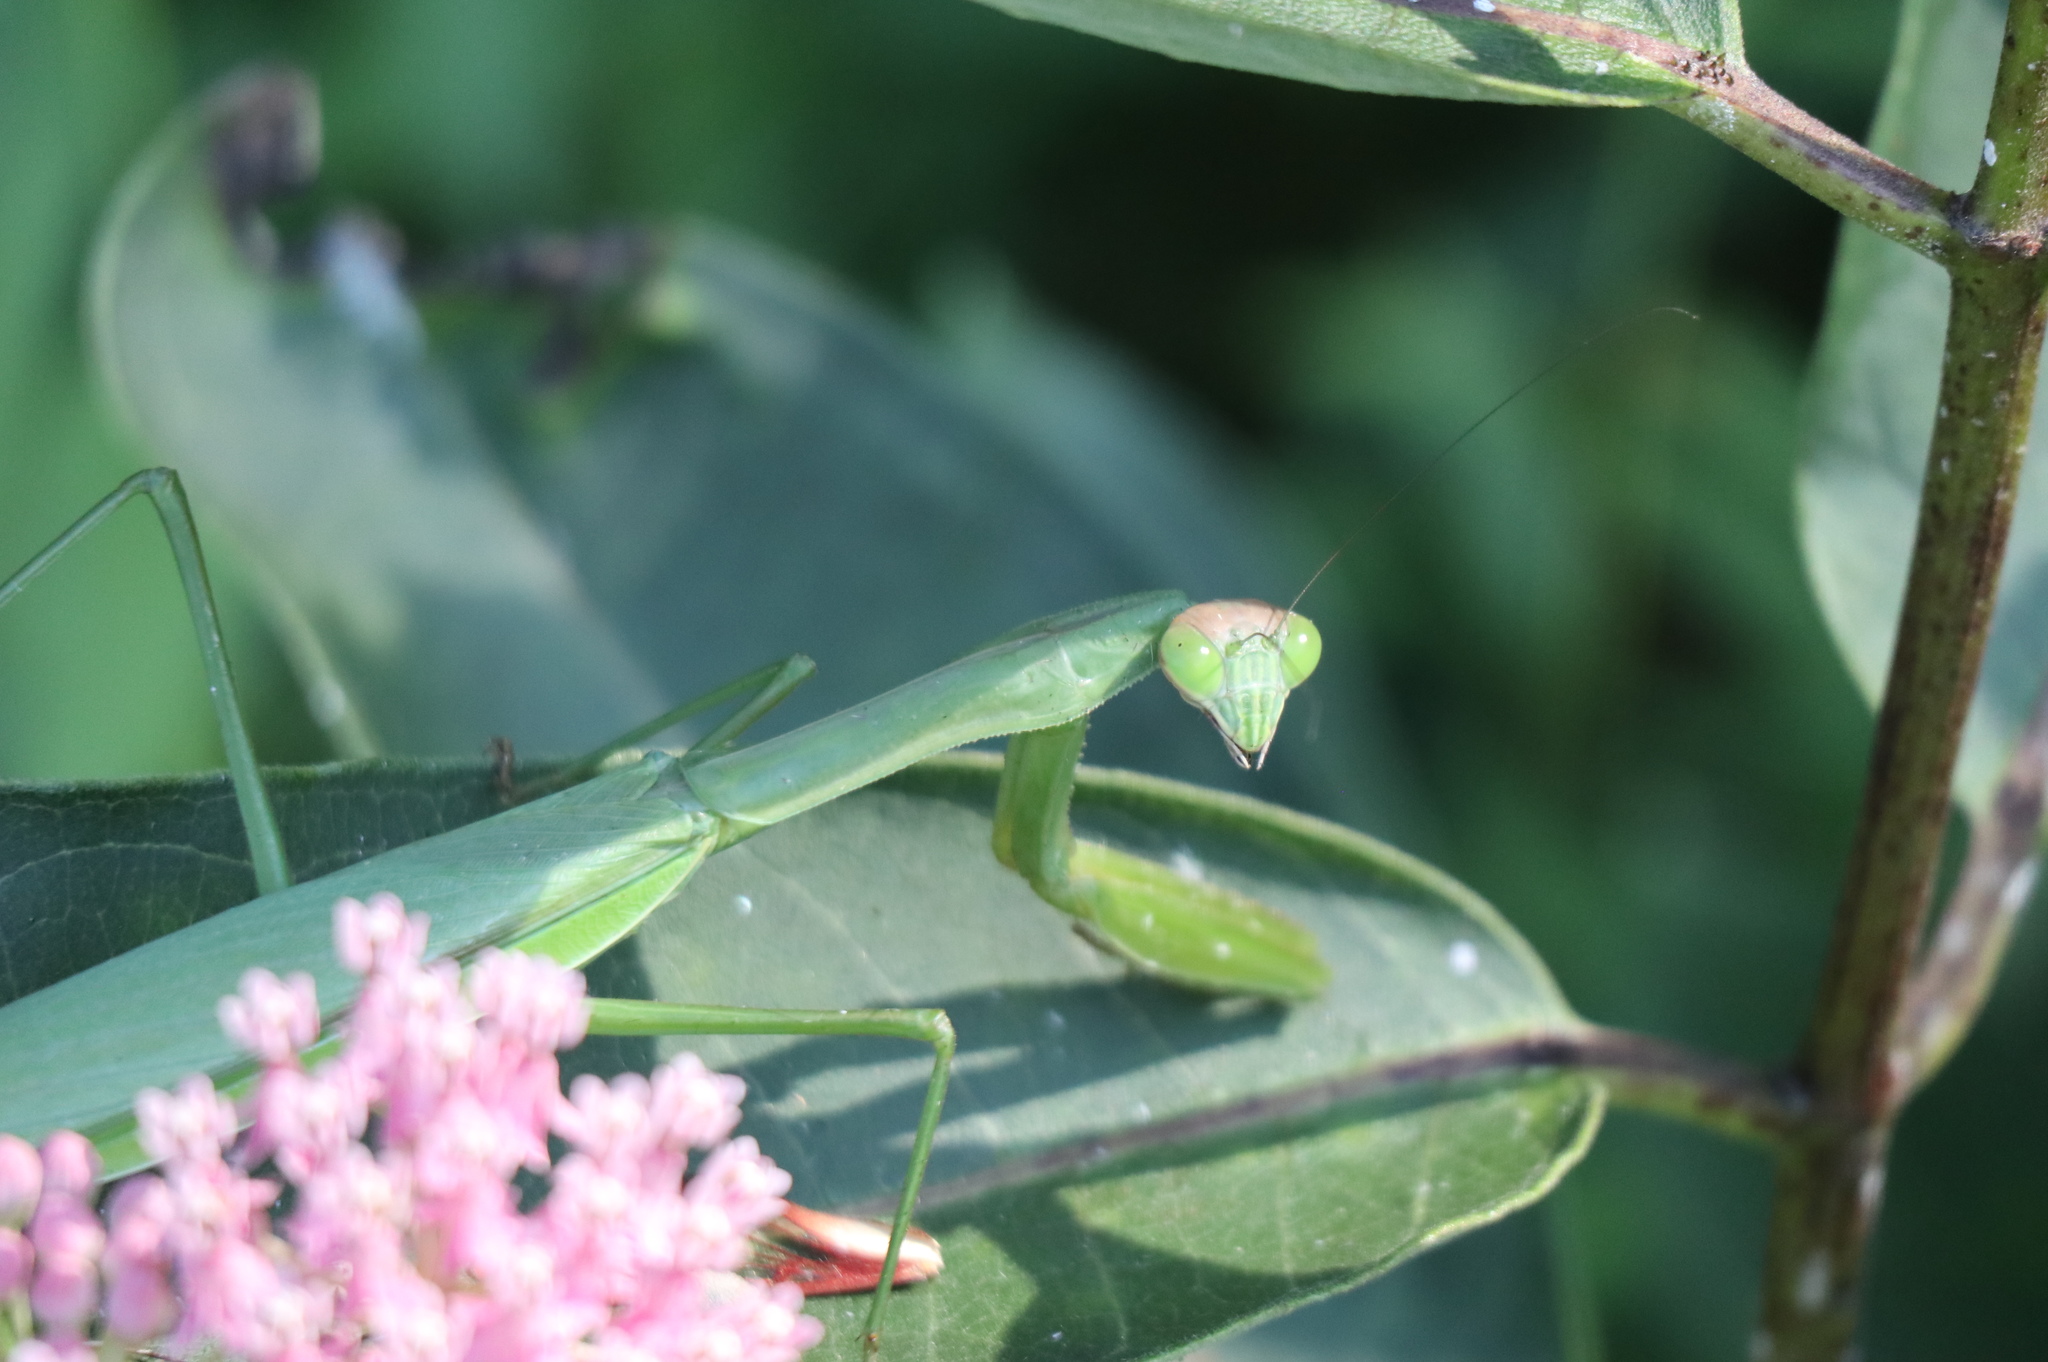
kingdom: Animalia
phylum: Arthropoda
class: Insecta
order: Mantodea
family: Mantidae
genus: Tenodera
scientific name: Tenodera sinensis
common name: Chinese mantis
